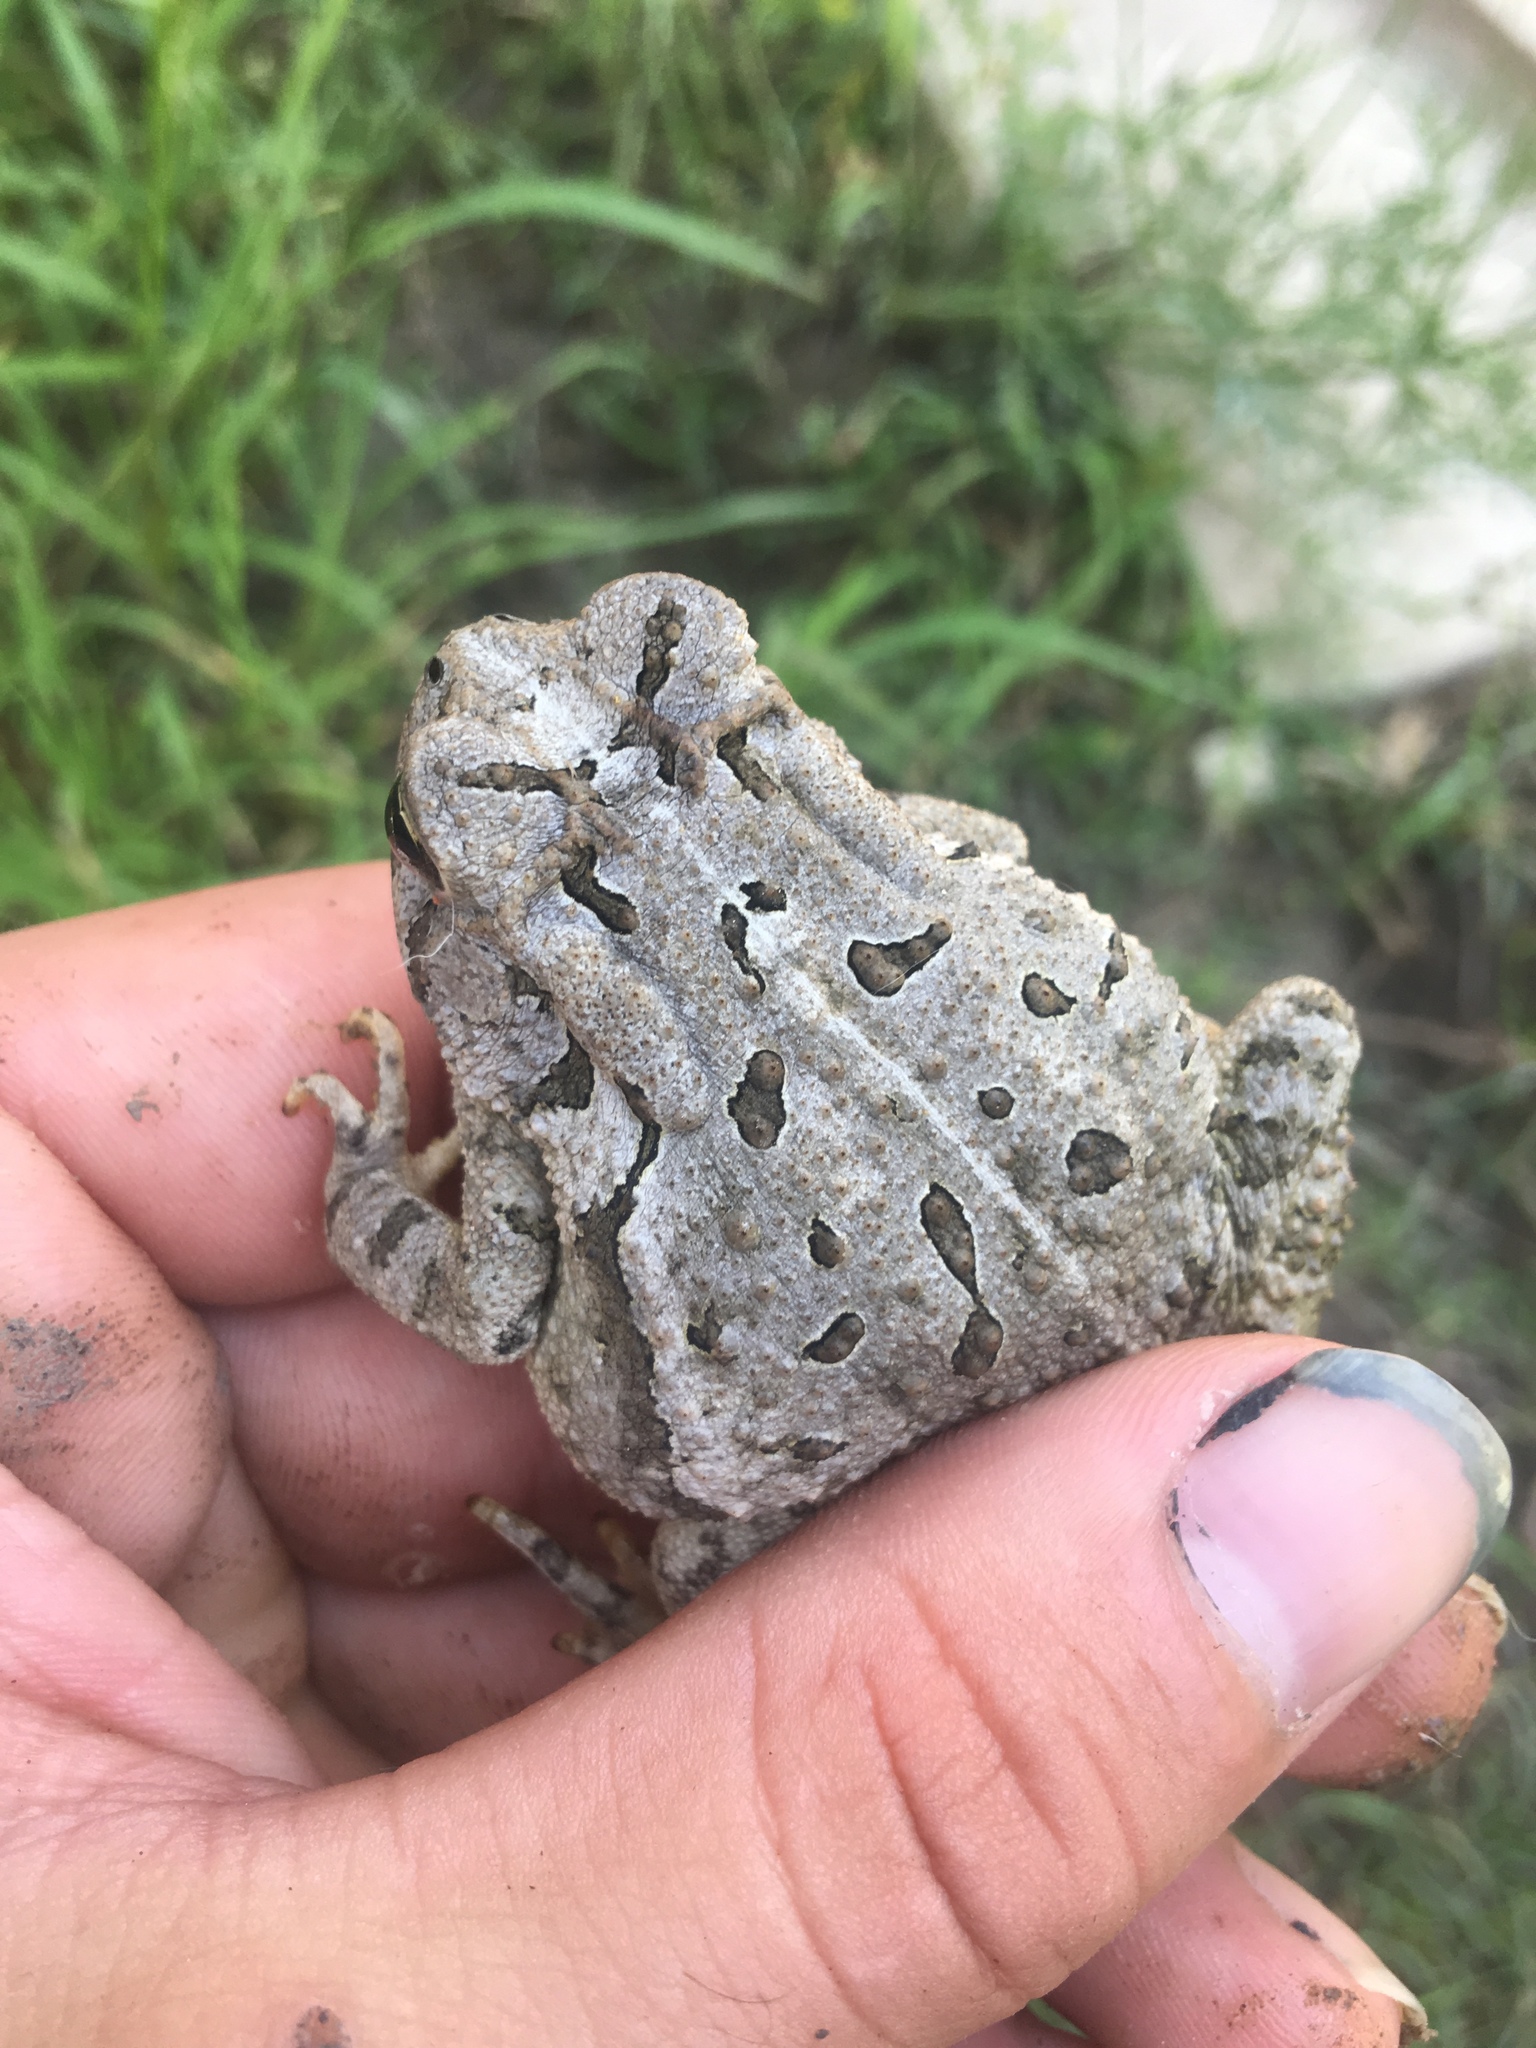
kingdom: Animalia
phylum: Chordata
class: Amphibia
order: Anura
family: Bufonidae
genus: Anaxyrus
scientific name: Anaxyrus fowleri
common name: Fowler's toad
